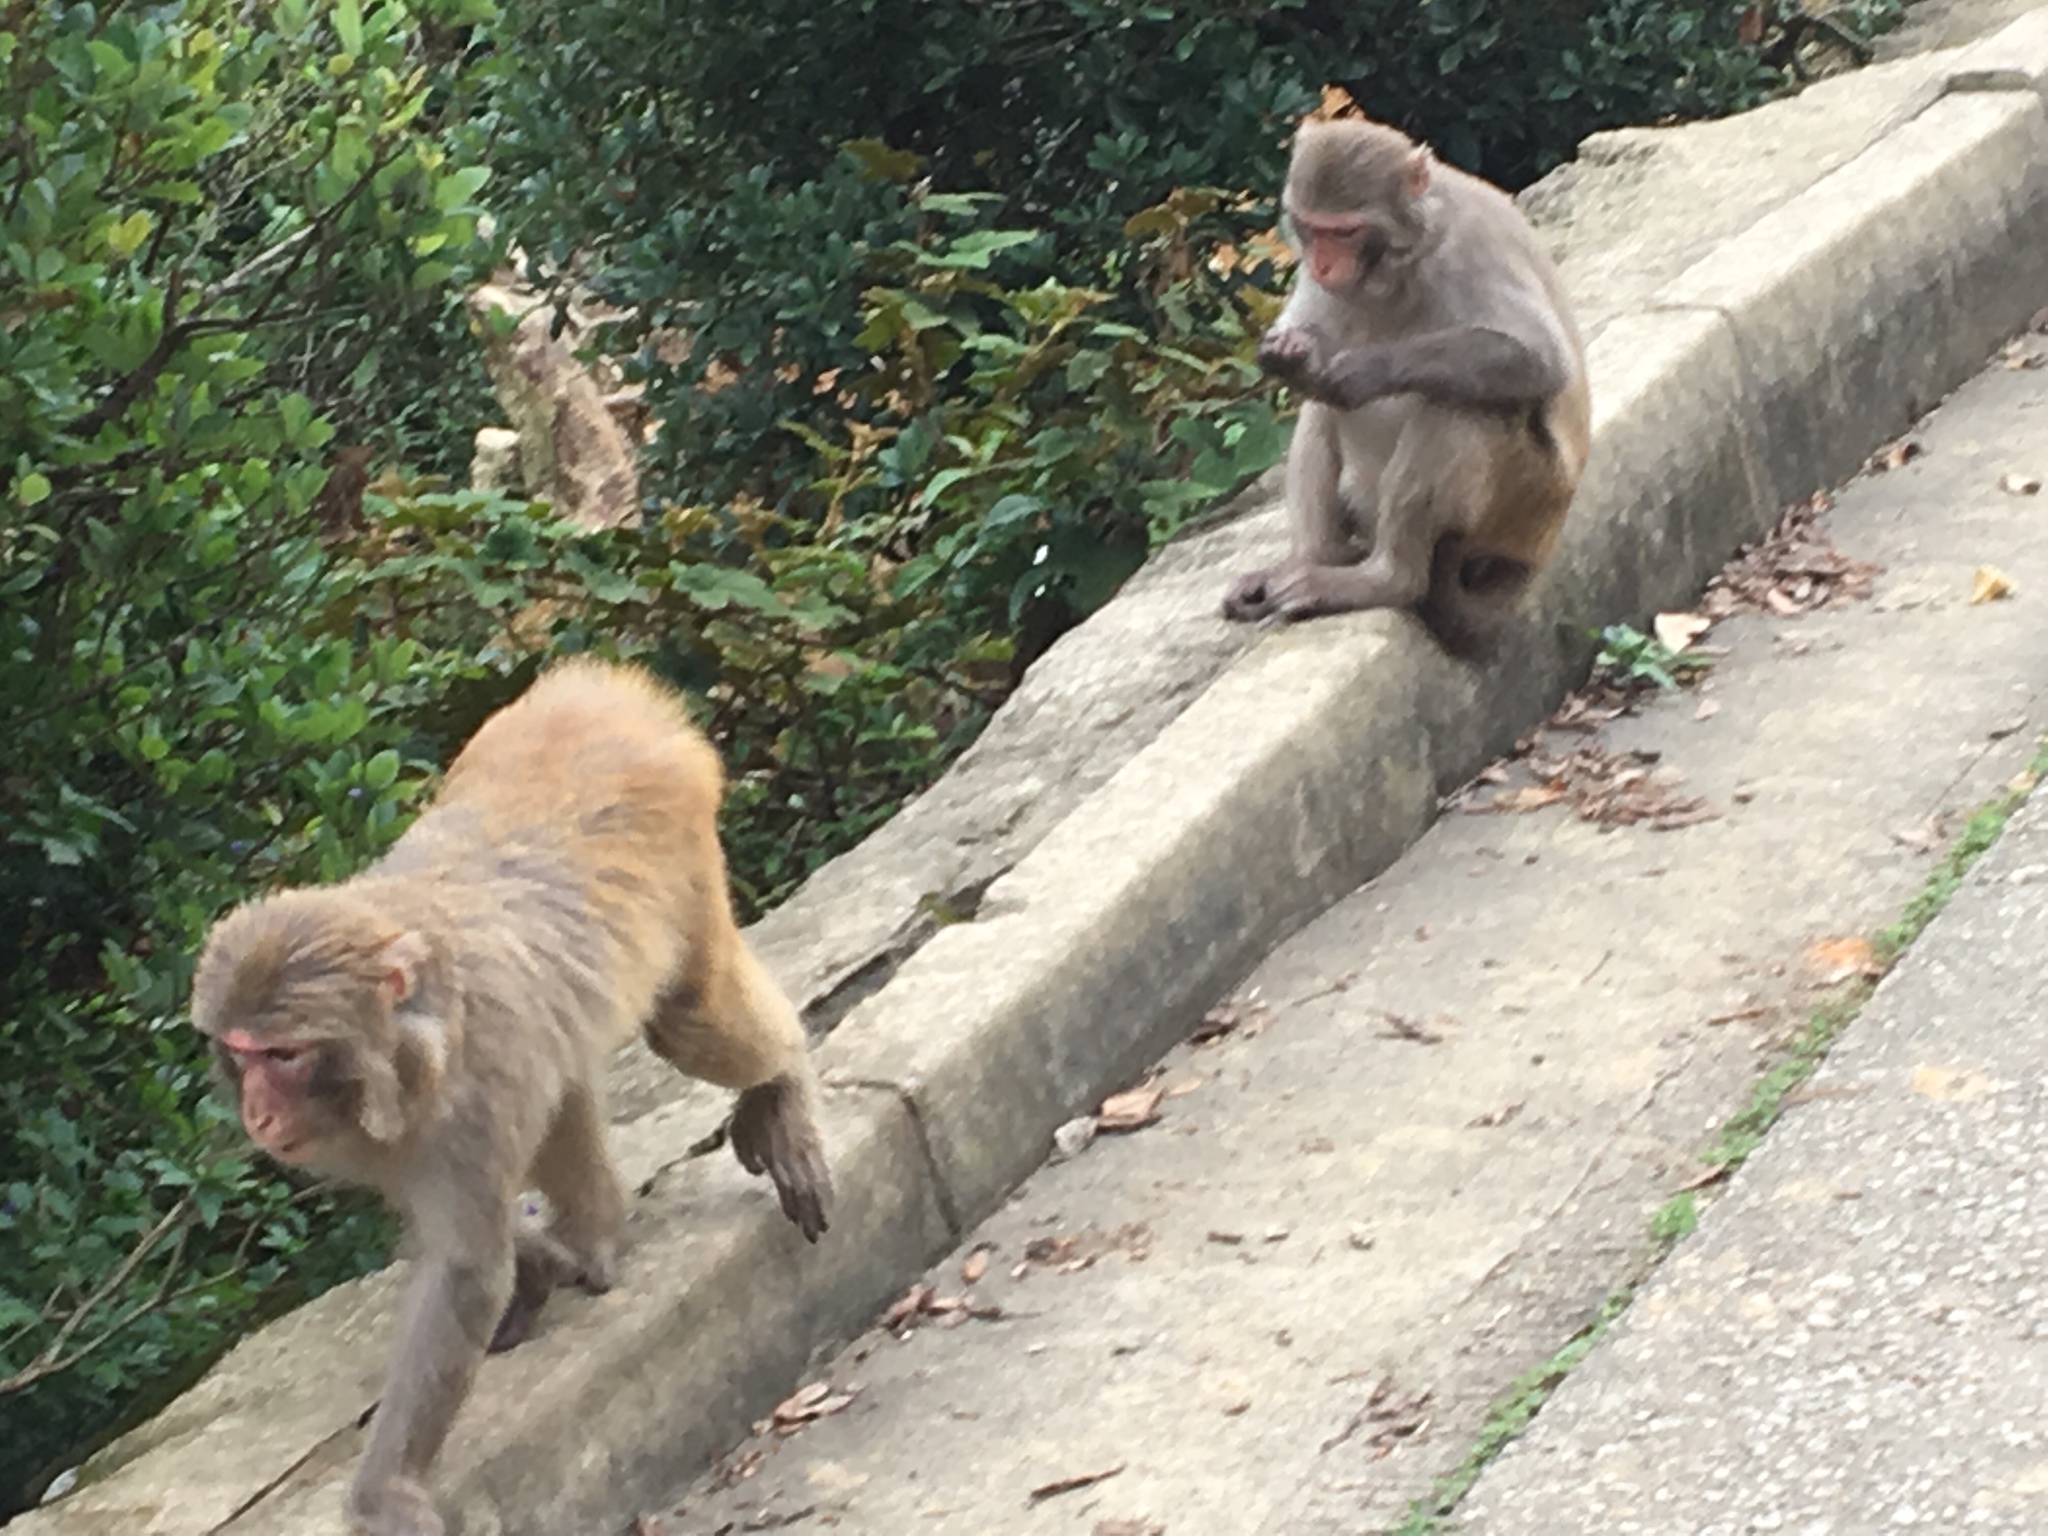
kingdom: Animalia
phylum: Chordata
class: Mammalia
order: Primates
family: Cercopithecidae
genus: Macaca
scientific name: Macaca mulatta
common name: Rhesus monkey
